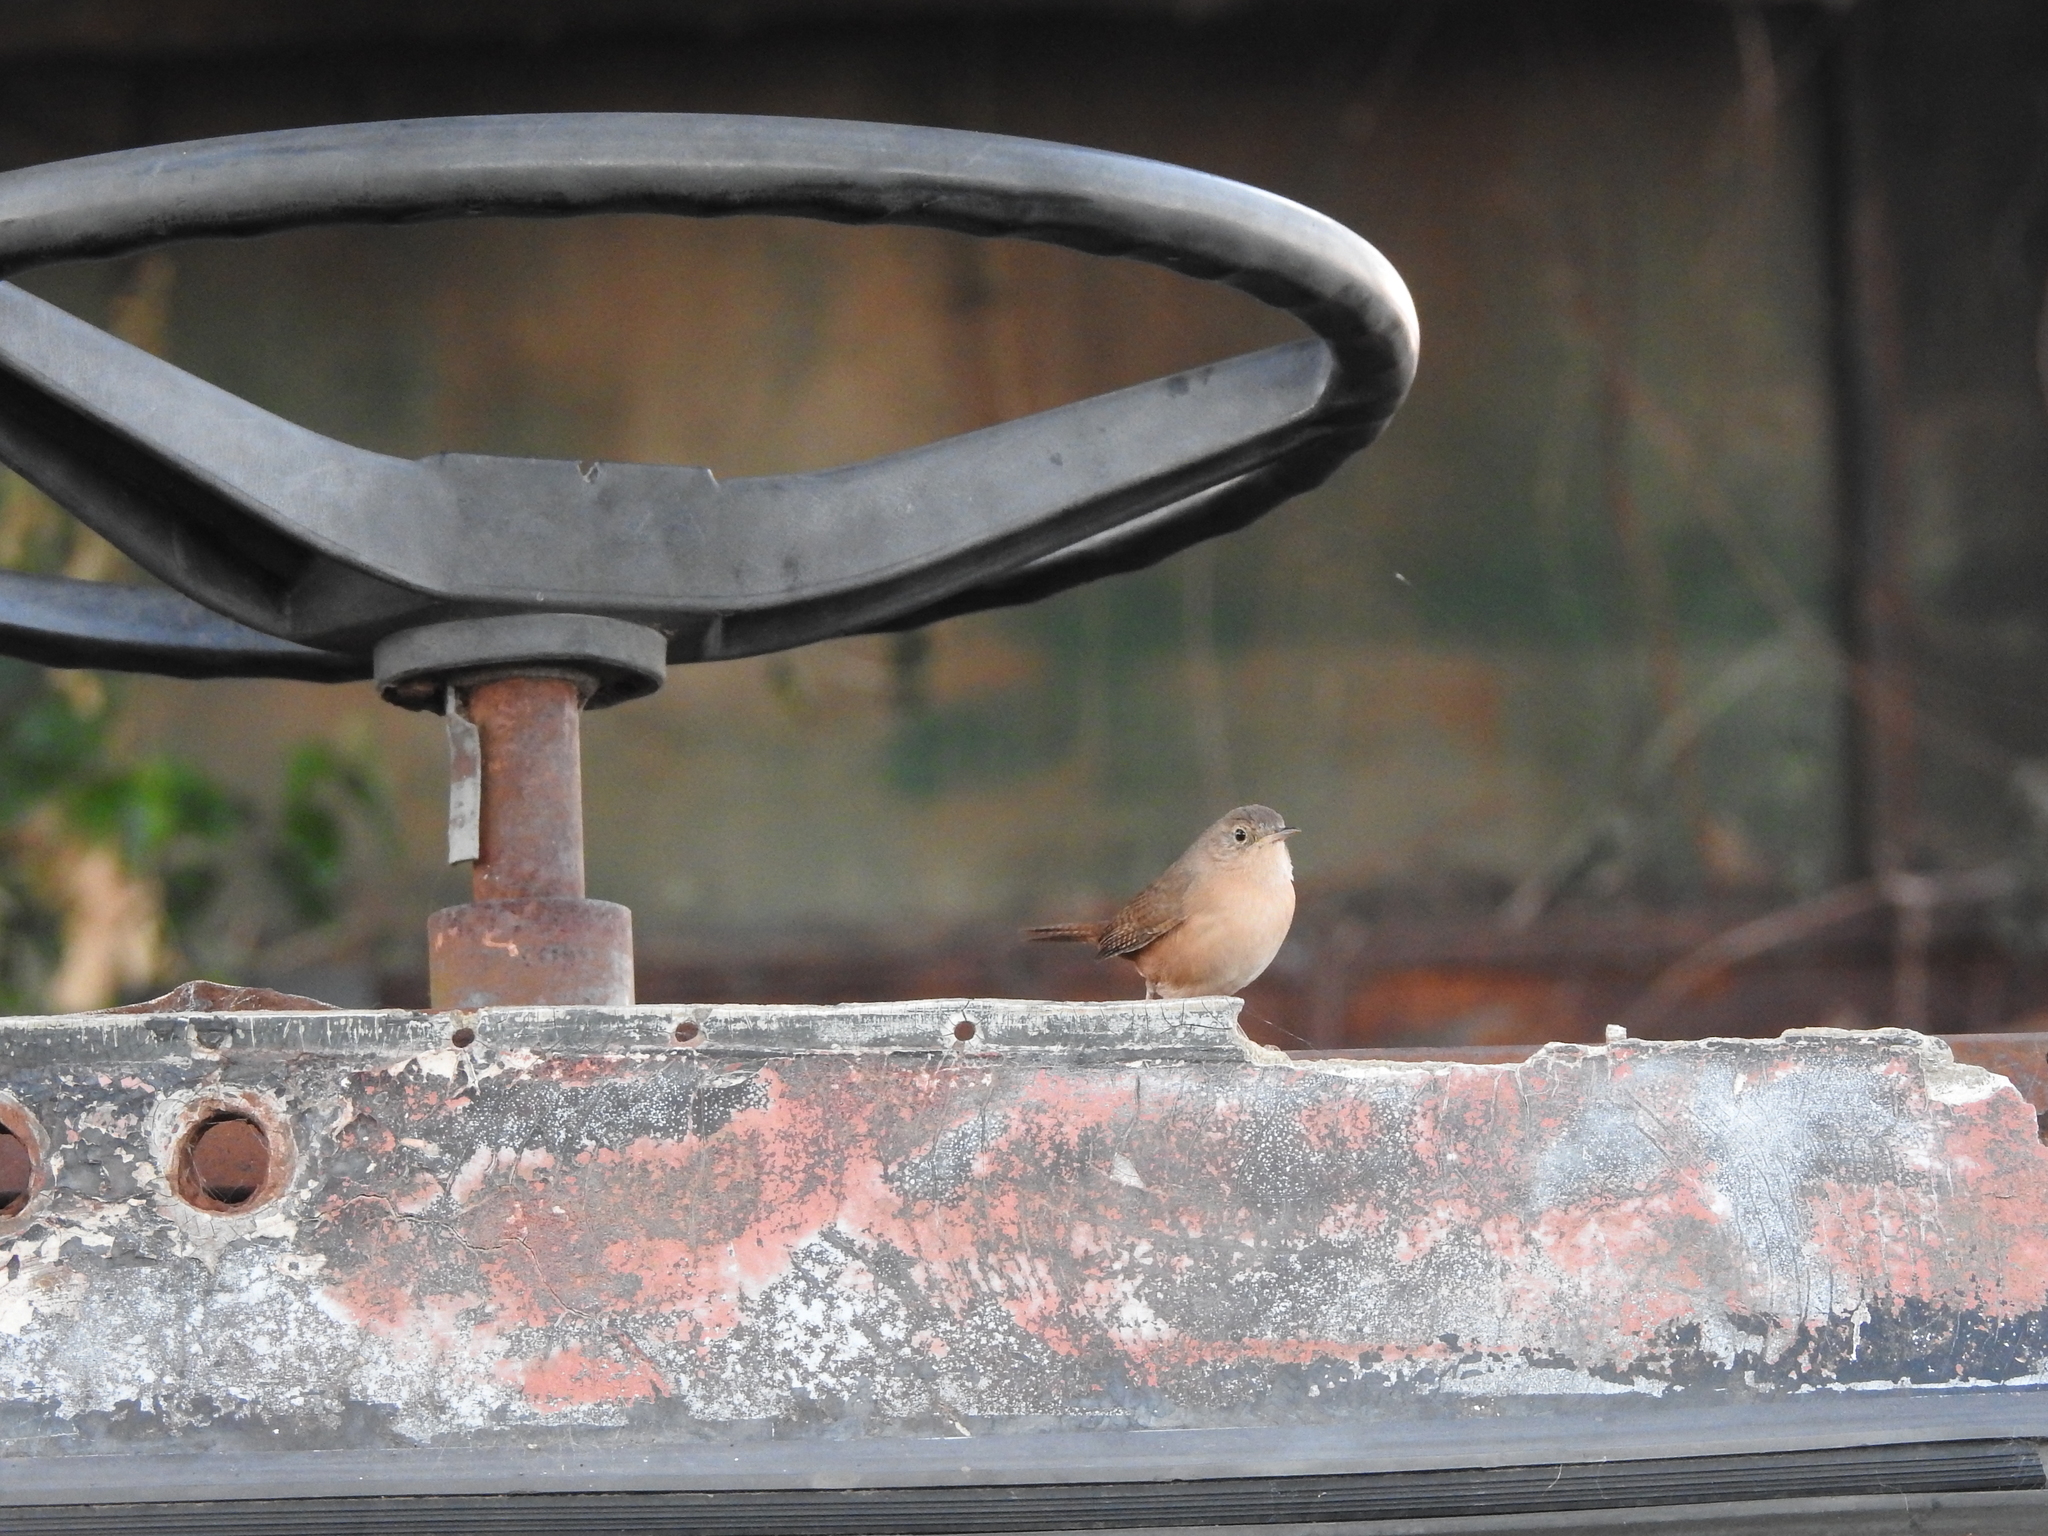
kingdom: Animalia
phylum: Chordata
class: Aves
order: Passeriformes
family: Troglodytidae
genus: Troglodytes
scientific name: Troglodytes aedon
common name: House wren
